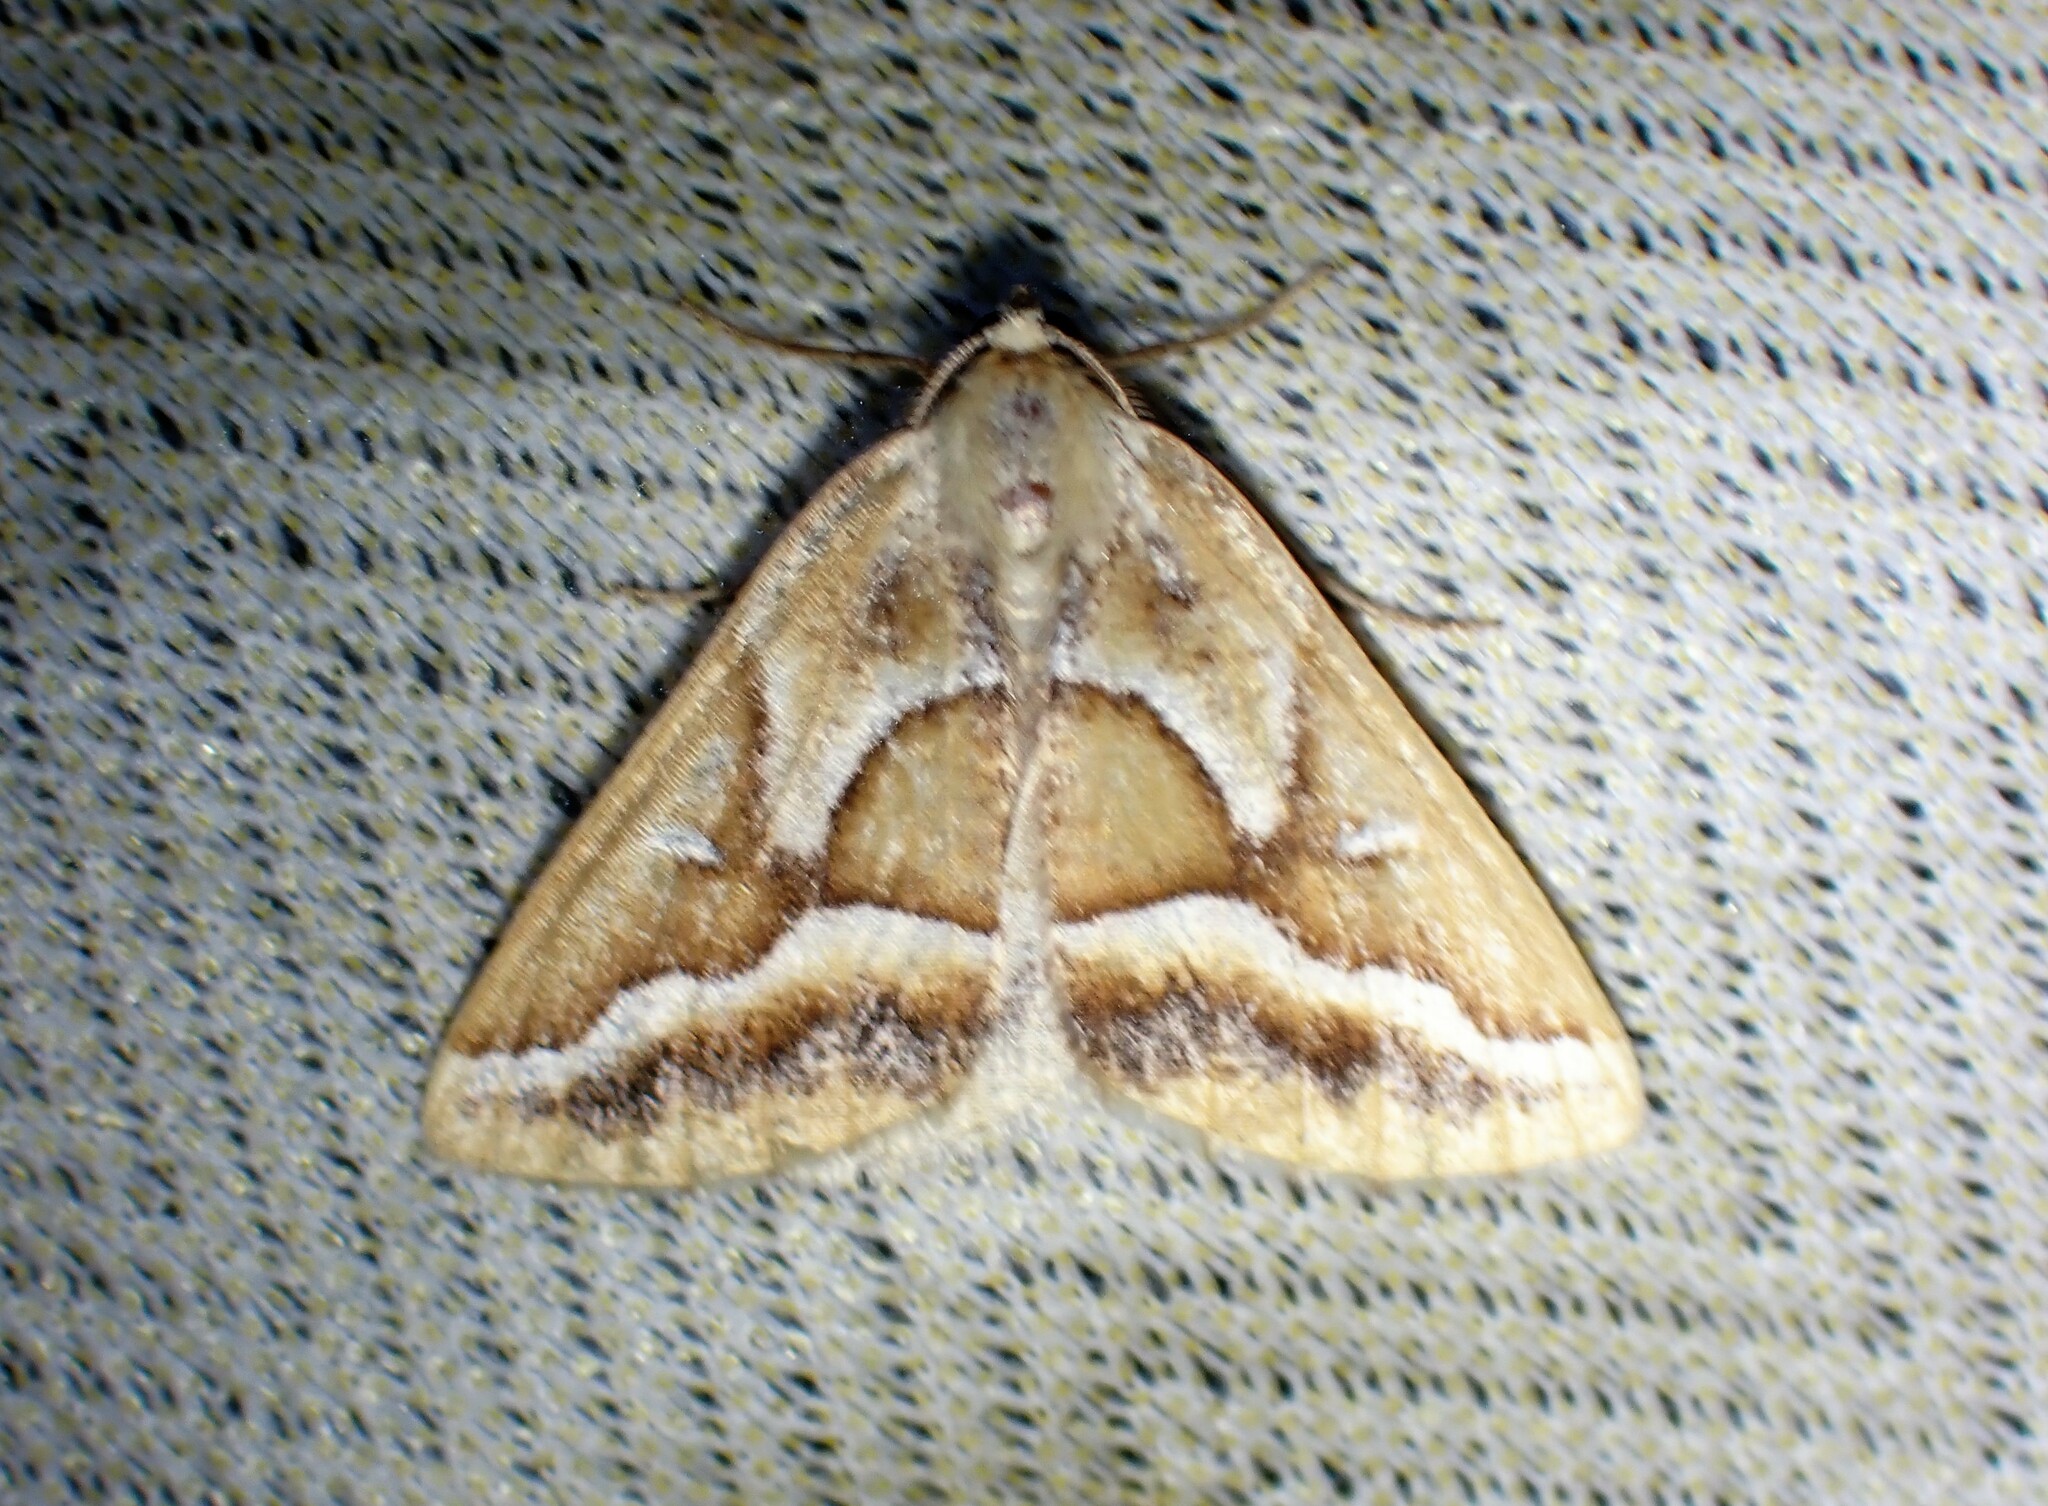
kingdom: Animalia
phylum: Arthropoda
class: Insecta
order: Lepidoptera
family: Geometridae
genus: Caripeta
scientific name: Caripeta angustiorata
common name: Brown pine looper
